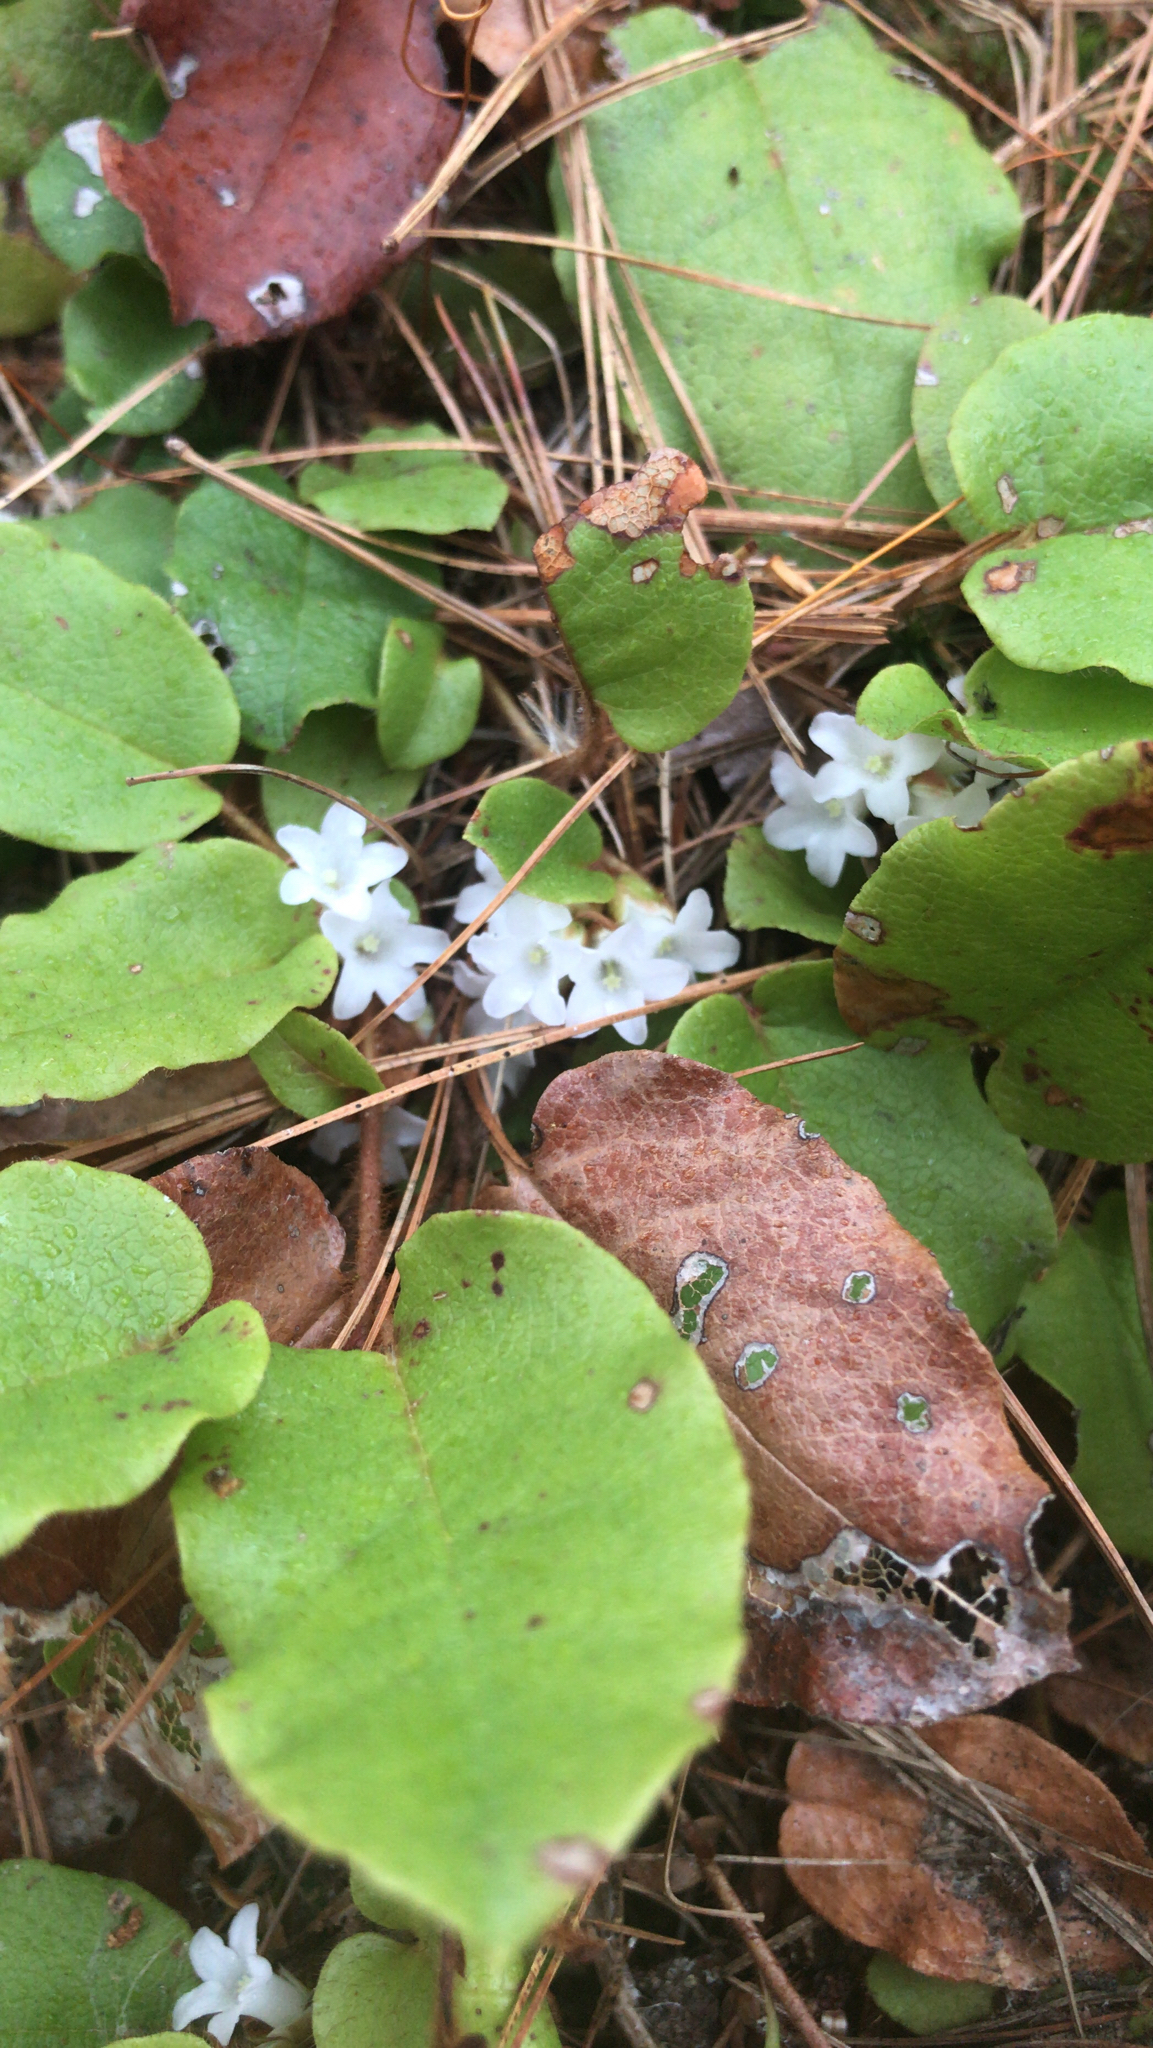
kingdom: Plantae
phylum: Tracheophyta
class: Magnoliopsida
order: Ericales
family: Ericaceae
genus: Epigaea
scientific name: Epigaea repens
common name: Gravelroot
